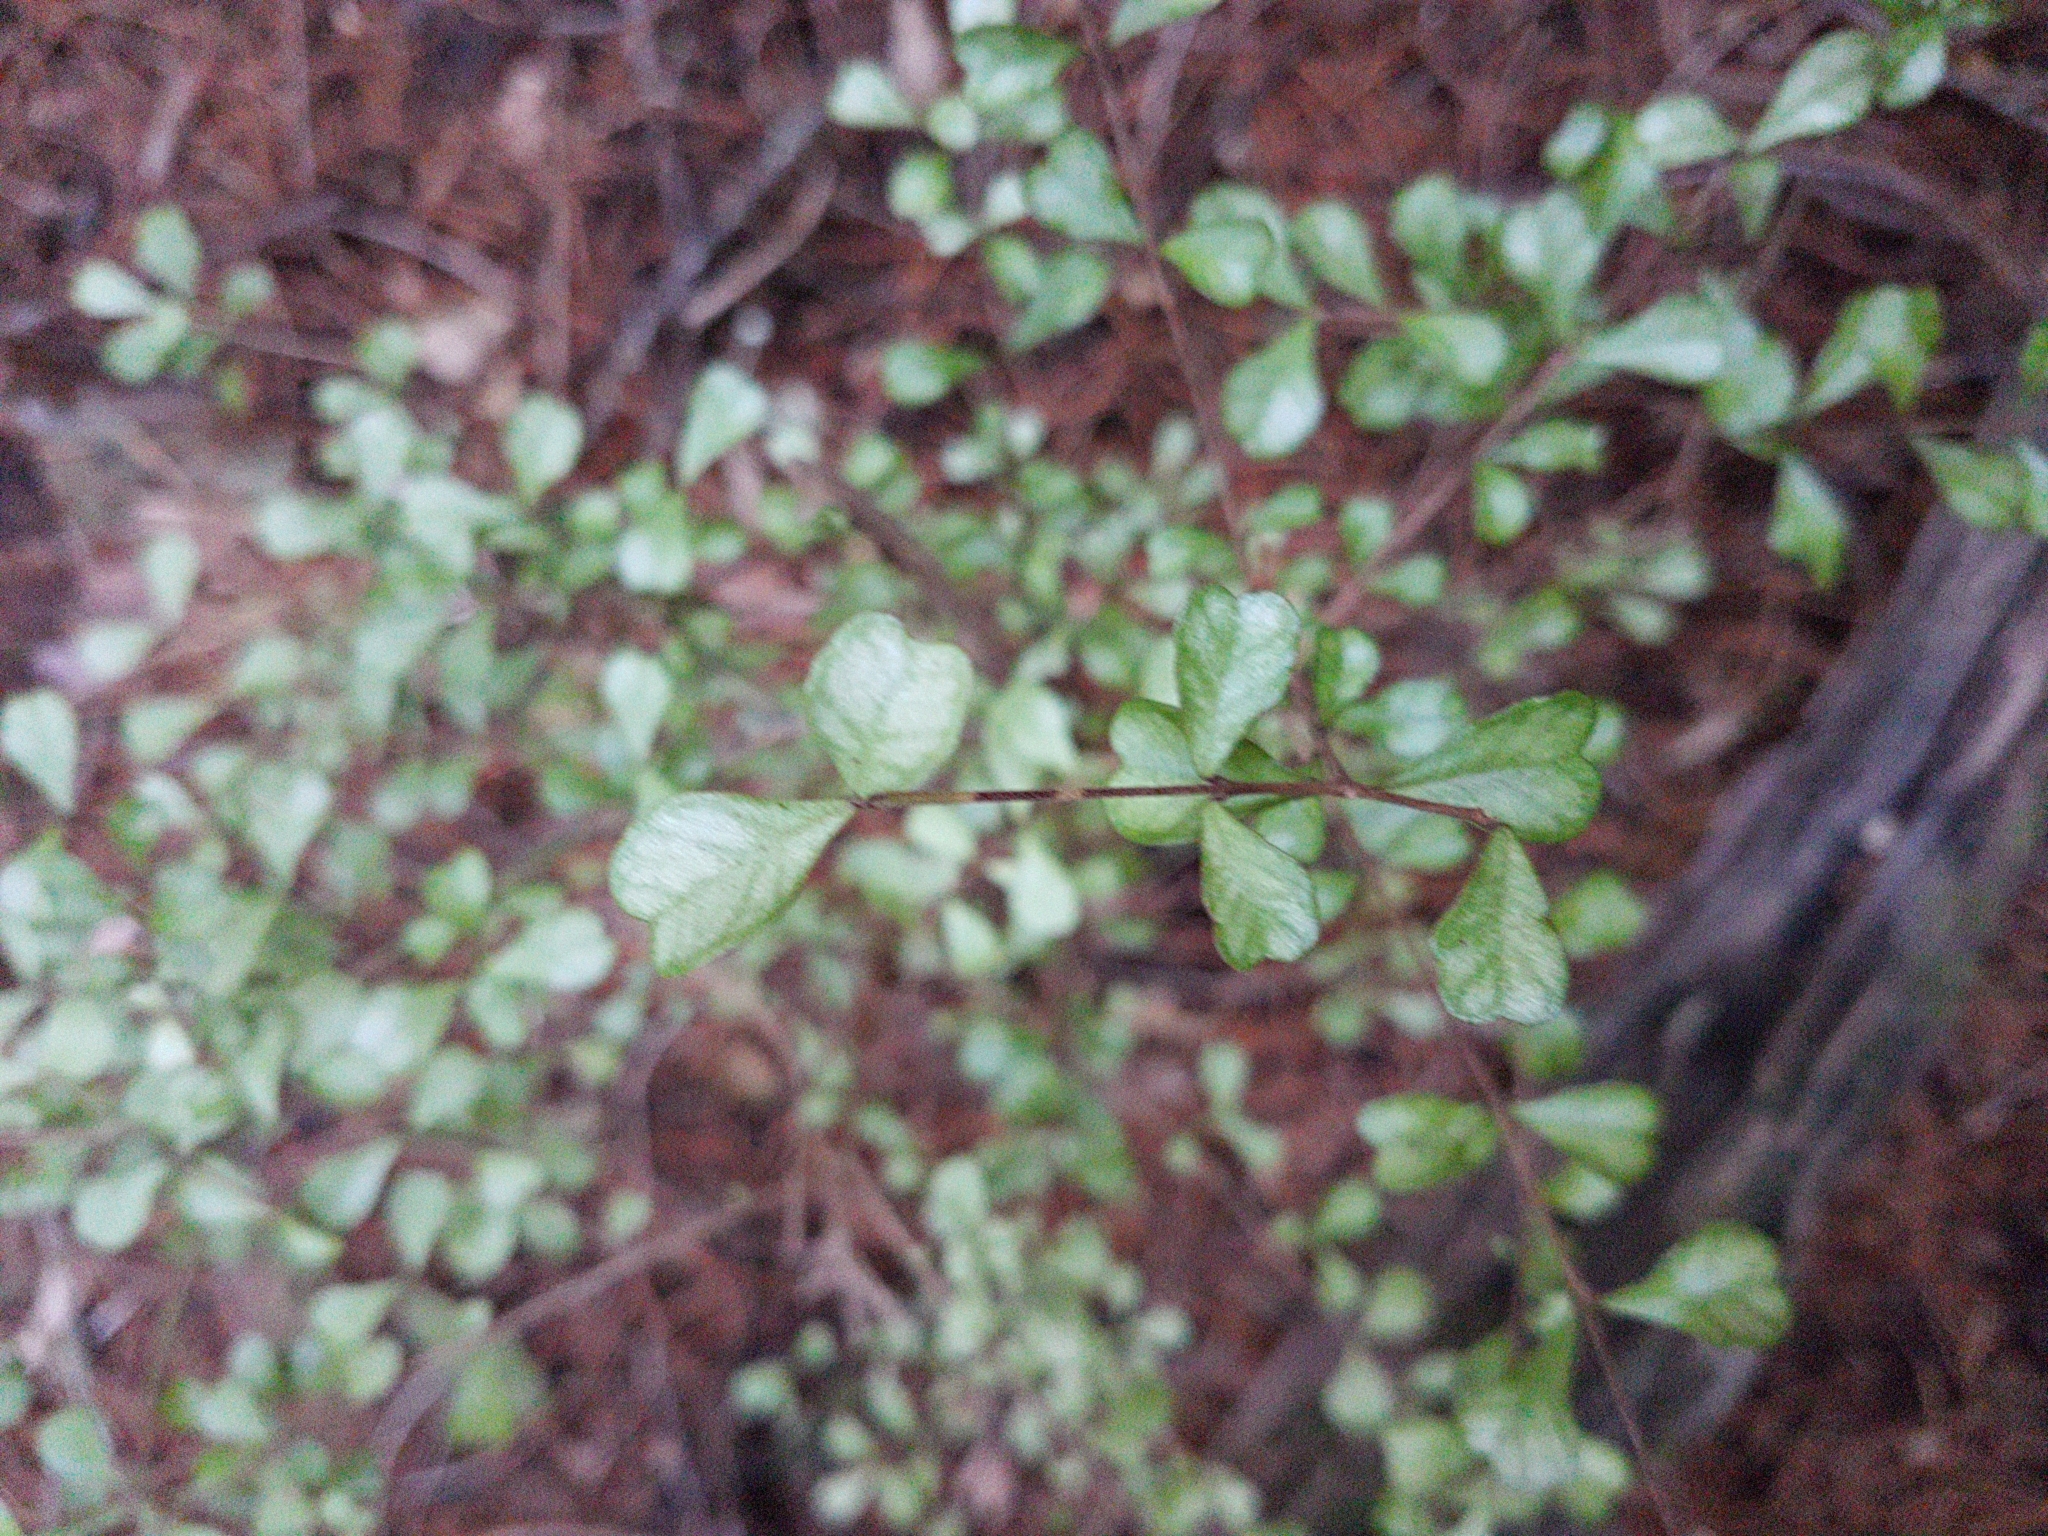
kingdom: Plantae
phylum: Tracheophyta
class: Magnoliopsida
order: Myrtales
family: Myrtaceae
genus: Lophomyrtus
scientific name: Lophomyrtus obcordata
